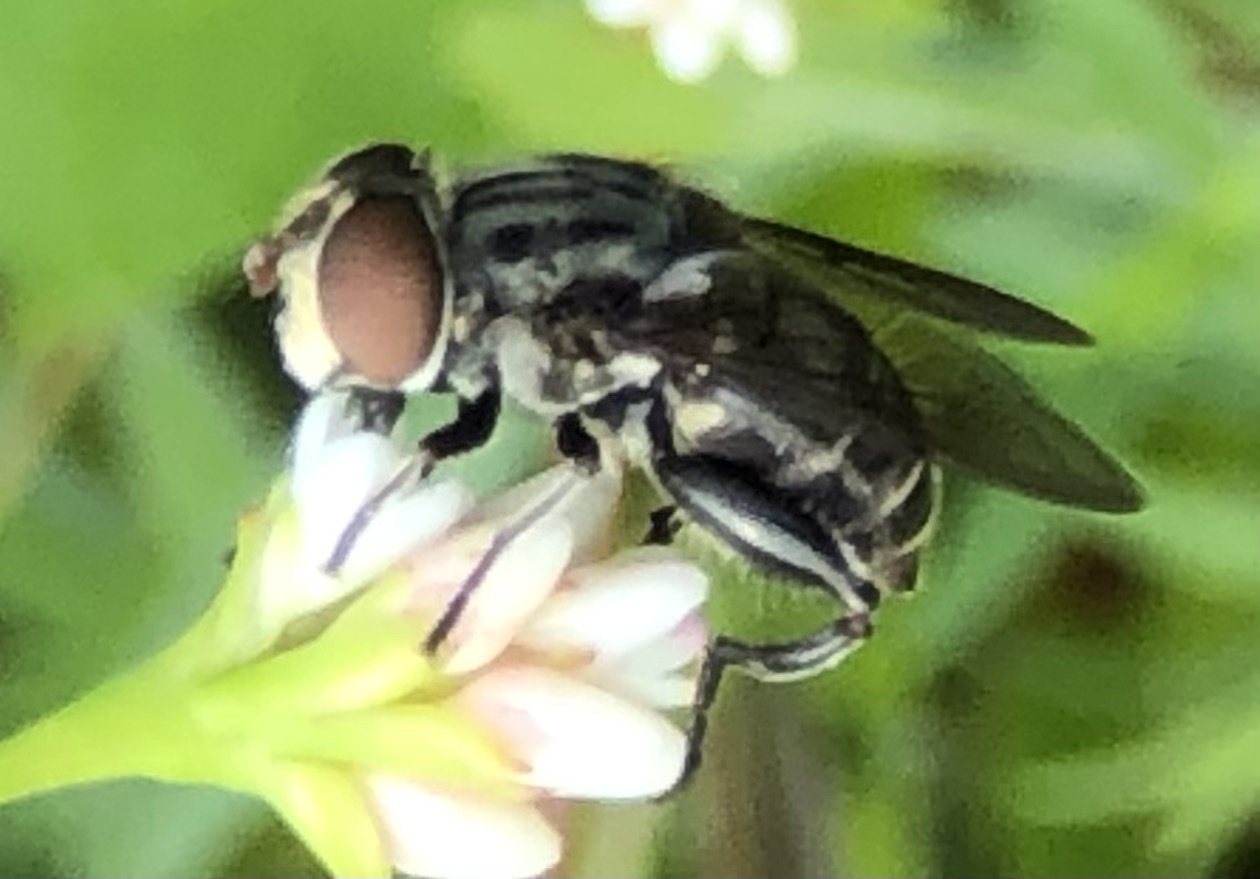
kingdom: Animalia
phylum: Arthropoda
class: Insecta
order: Diptera
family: Syrphidae
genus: Palpada
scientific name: Palpada furcata
